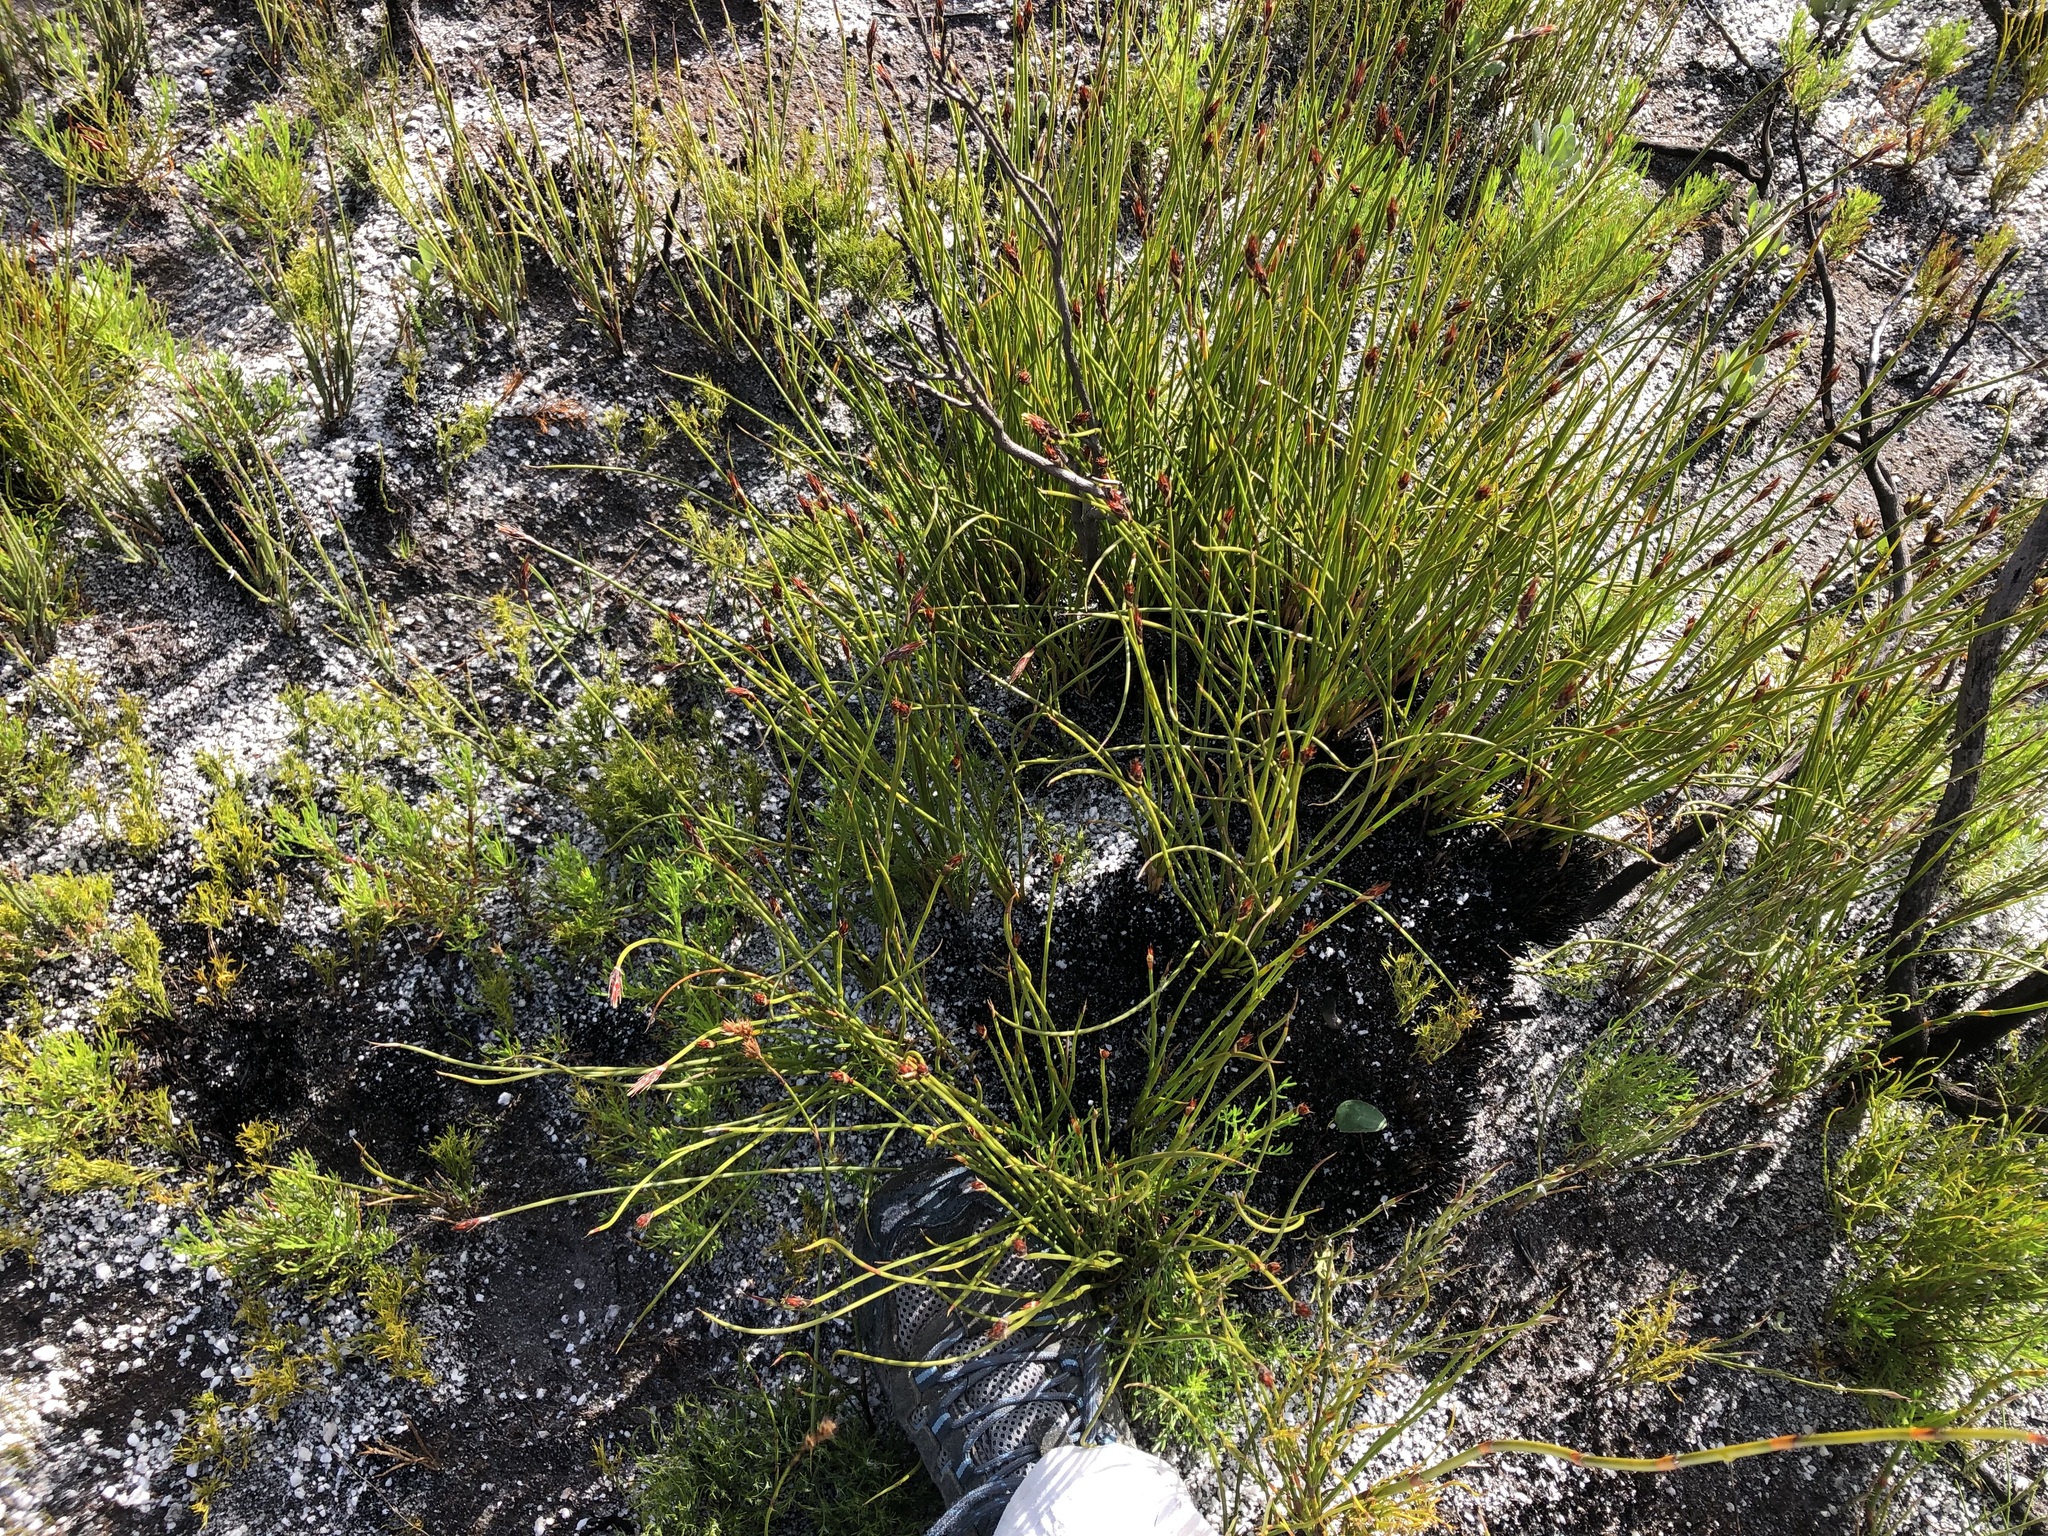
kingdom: Plantae
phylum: Tracheophyta
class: Liliopsida
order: Poales
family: Restionaceae
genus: Hypodiscus
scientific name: Hypodiscus aristatus
